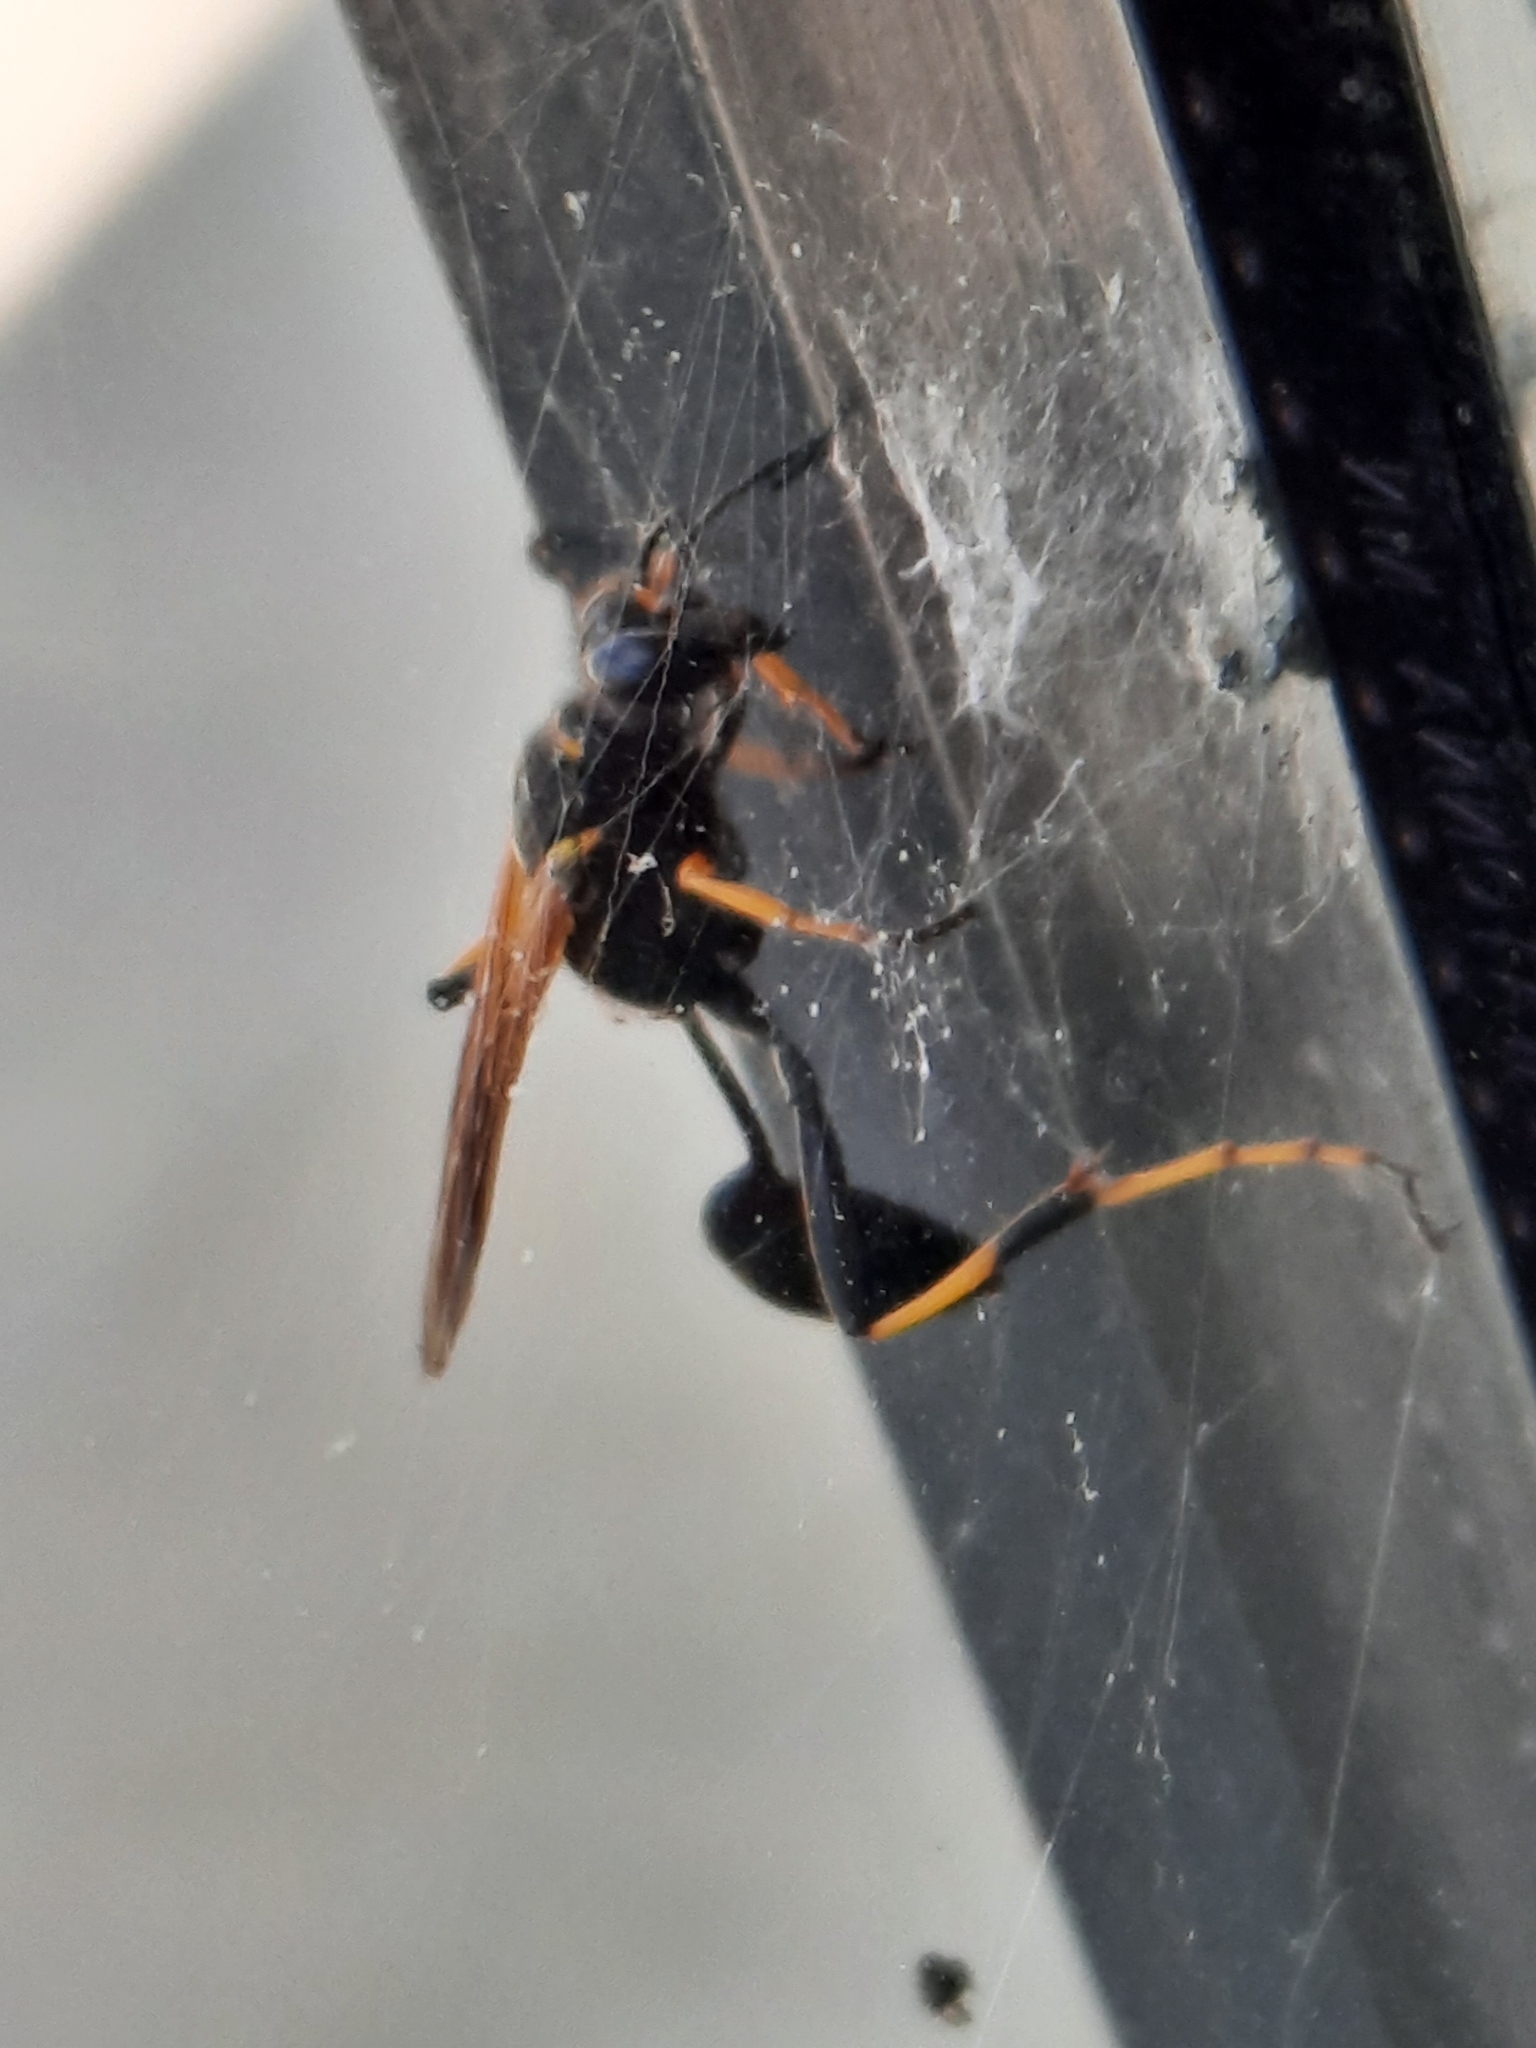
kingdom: Animalia
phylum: Arthropoda
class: Insecta
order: Hymenoptera
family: Sphecidae
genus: Sceliphron
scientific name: Sceliphron caementarium
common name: Mud dauber
